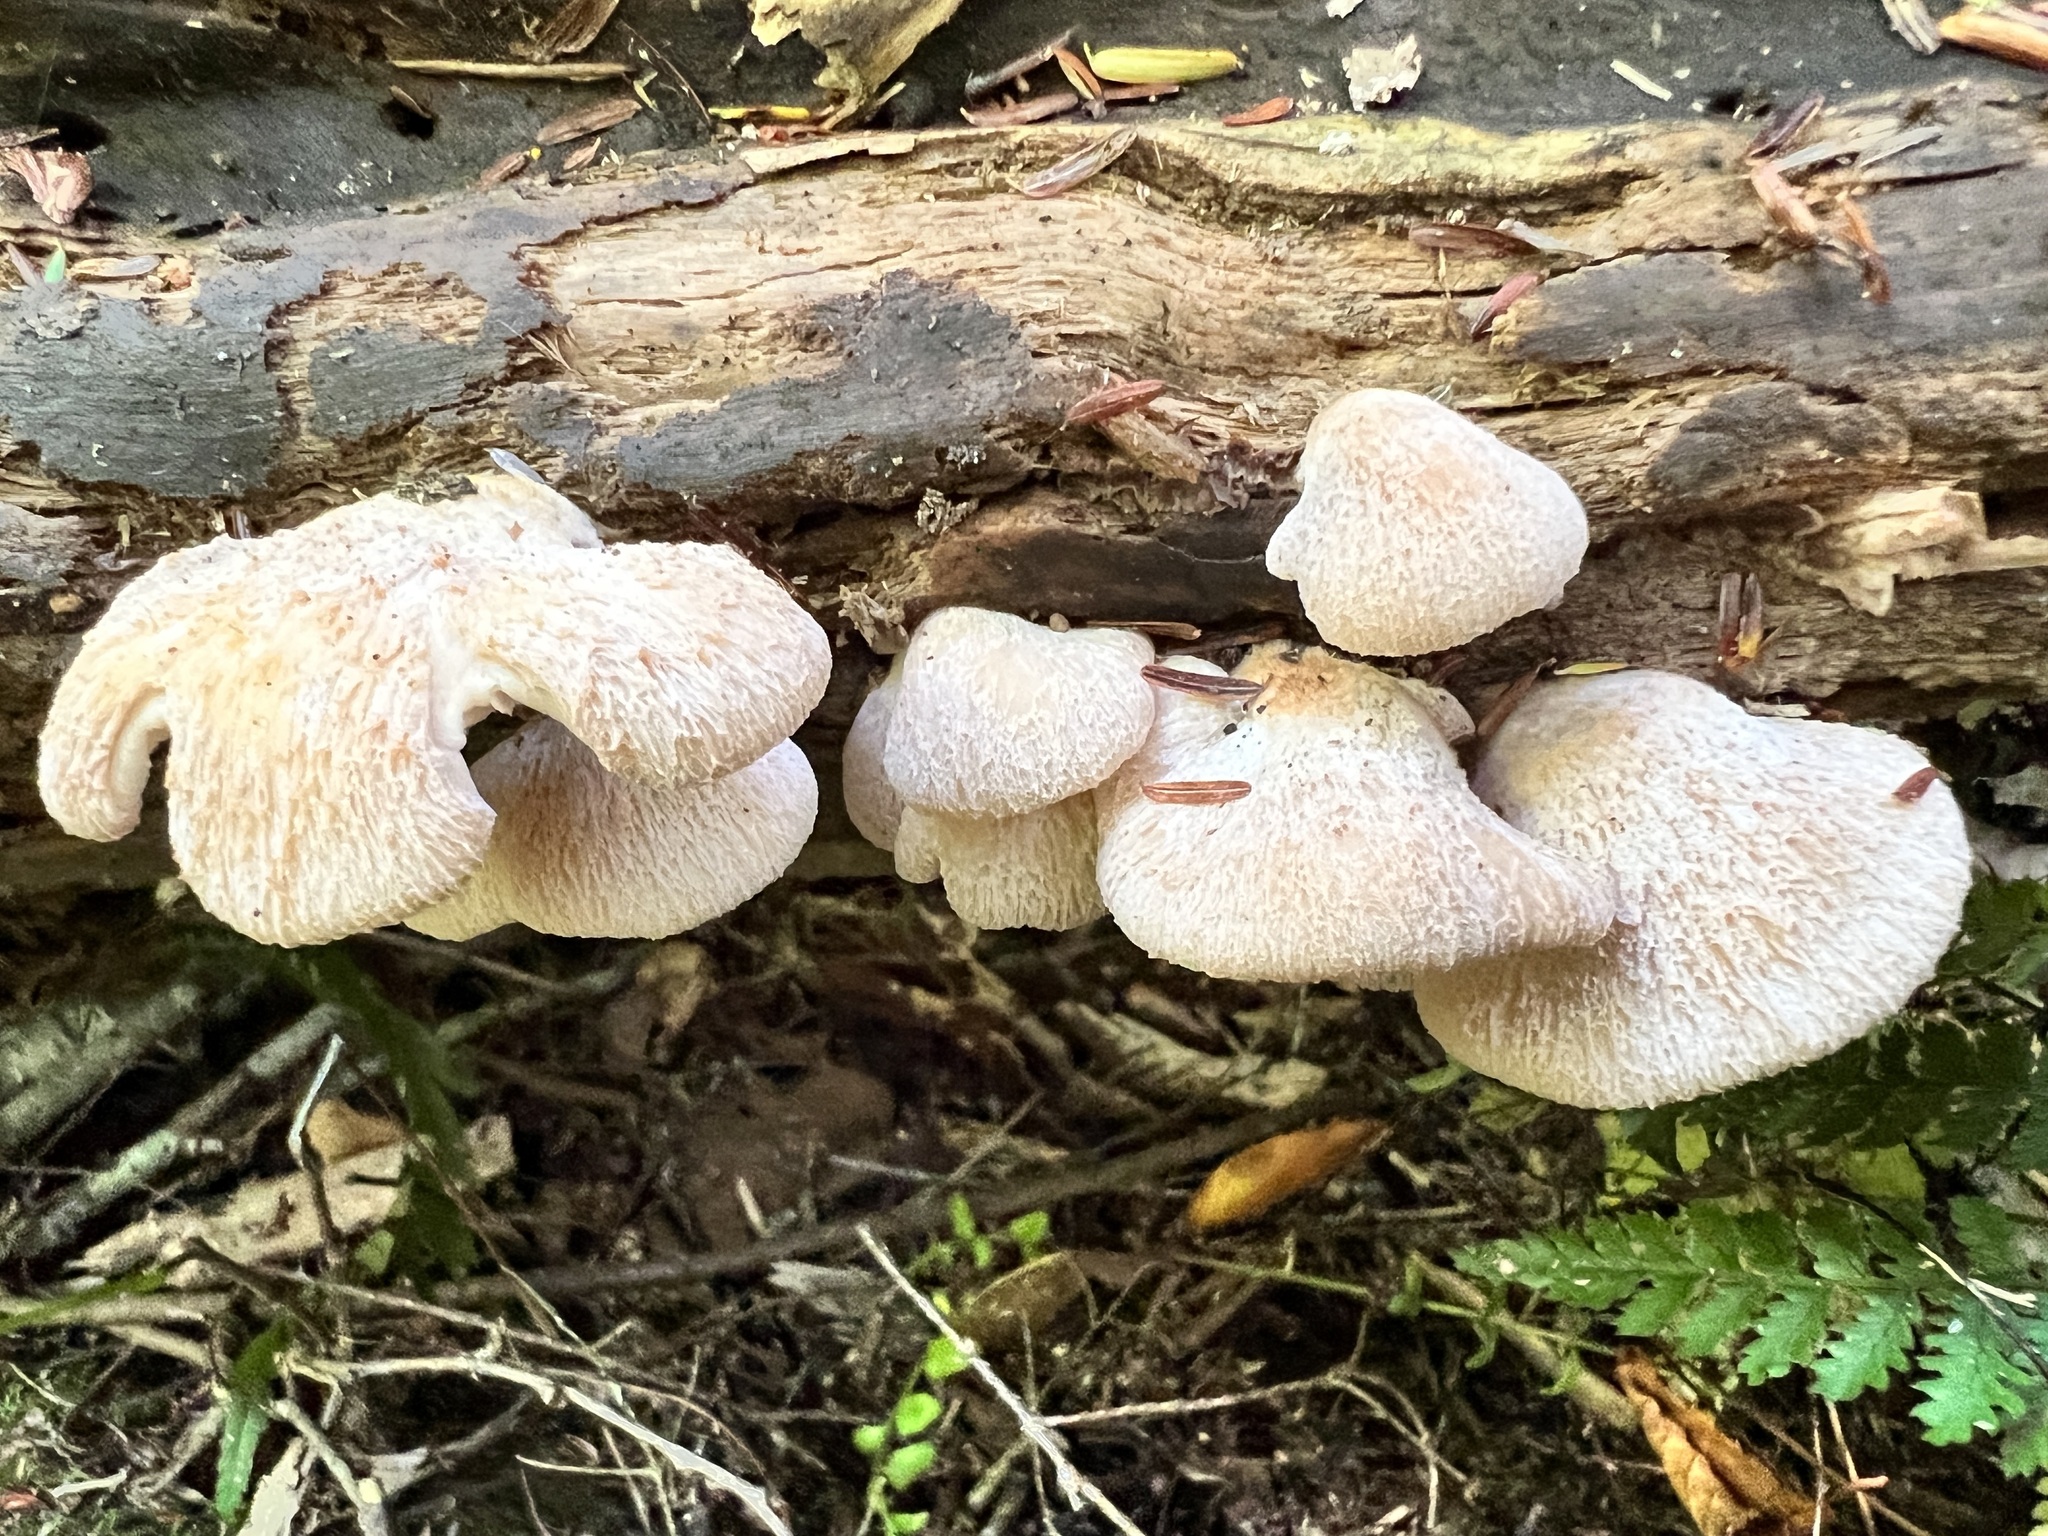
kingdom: Fungi
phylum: Basidiomycota
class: Agaricomycetes
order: Russulales
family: Auriscalpiaceae
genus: Lentinellus
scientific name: Lentinellus ursinus
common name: Bear lentinus
